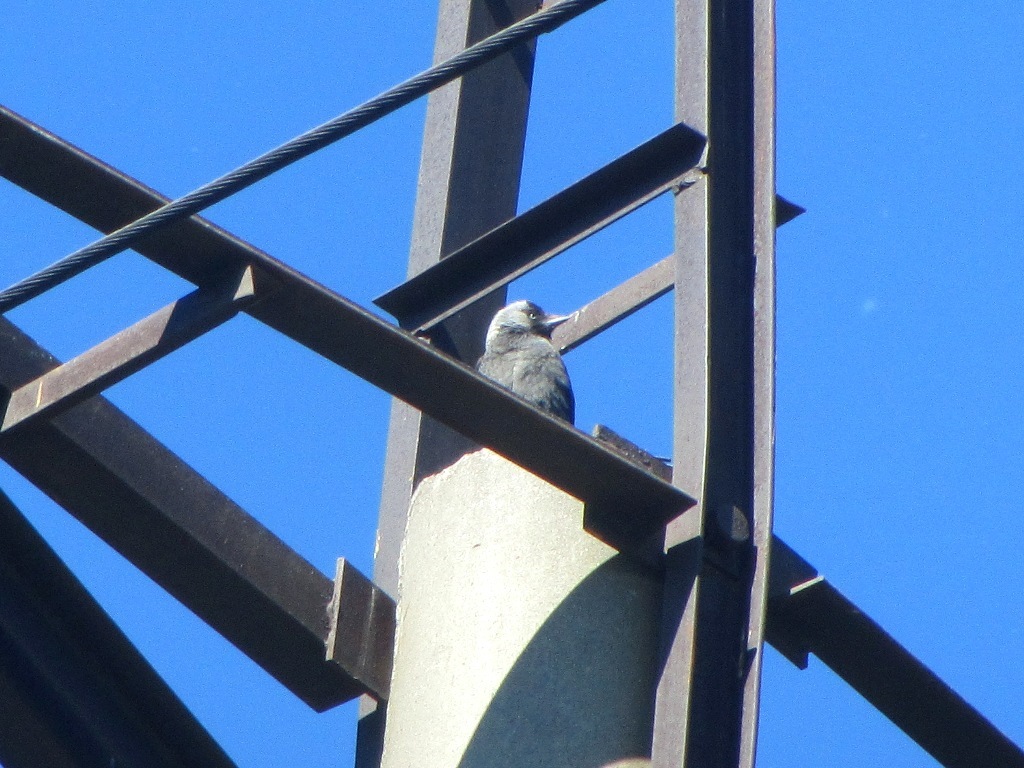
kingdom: Animalia
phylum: Chordata
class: Aves
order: Passeriformes
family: Corvidae
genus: Coloeus
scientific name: Coloeus monedula
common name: Western jackdaw
